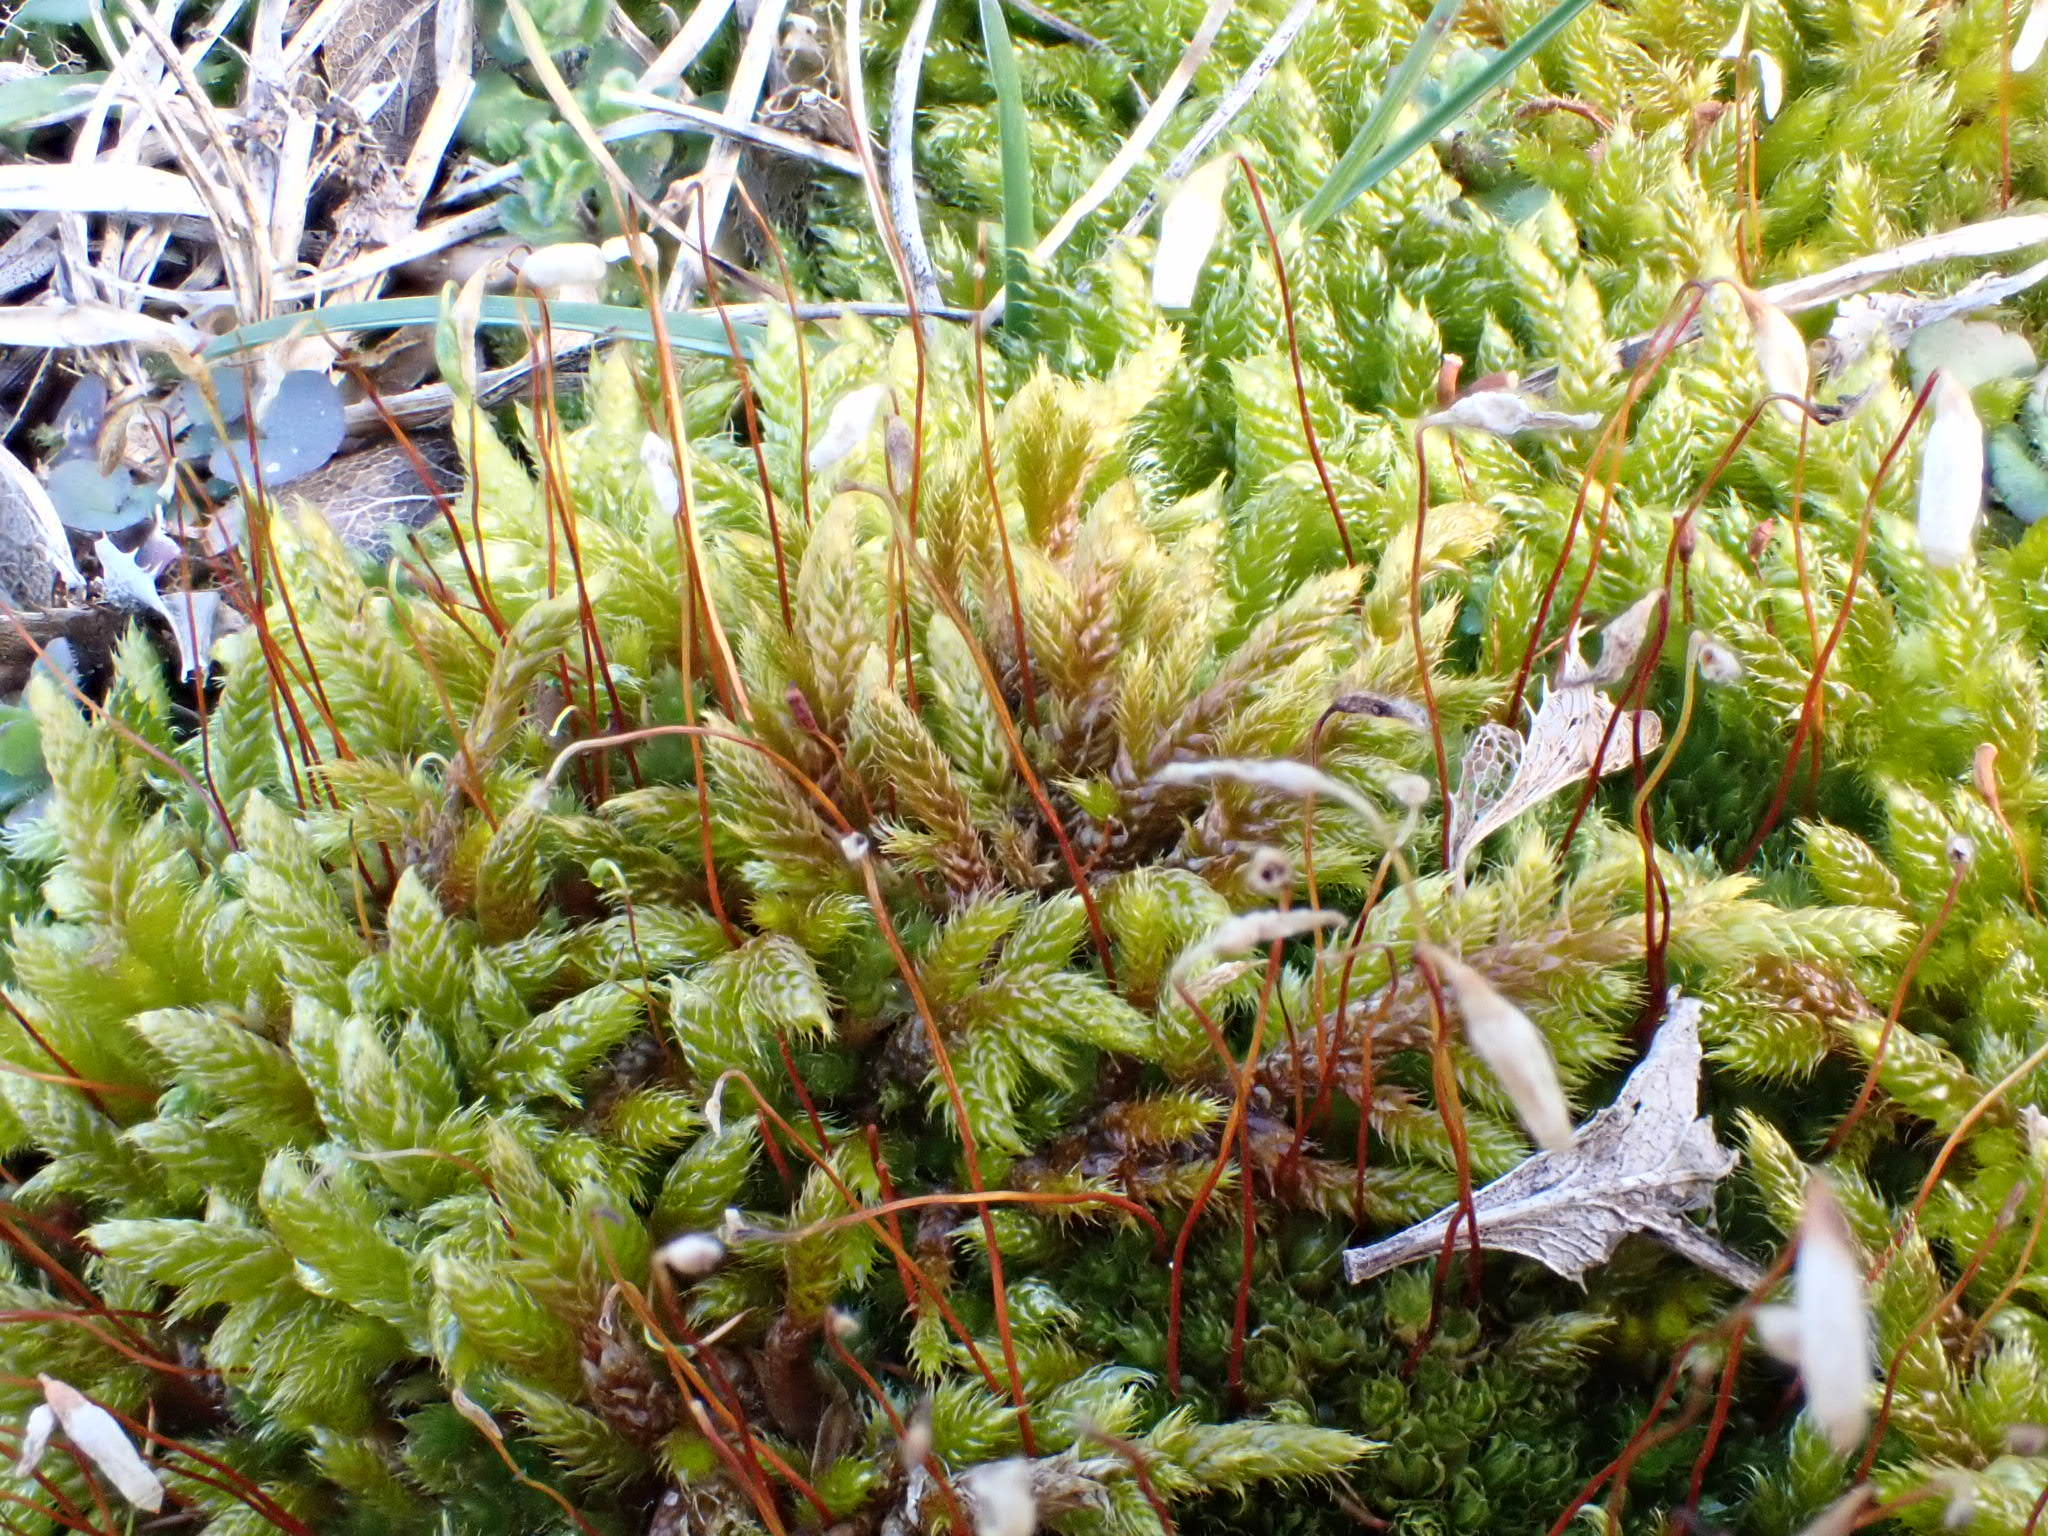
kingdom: Plantae
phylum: Bryophyta
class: Bryopsida
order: Hypnales
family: Hypnaceae
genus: Hypnum
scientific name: Hypnum cupressiforme
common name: Cypress-leaved plait-moss
